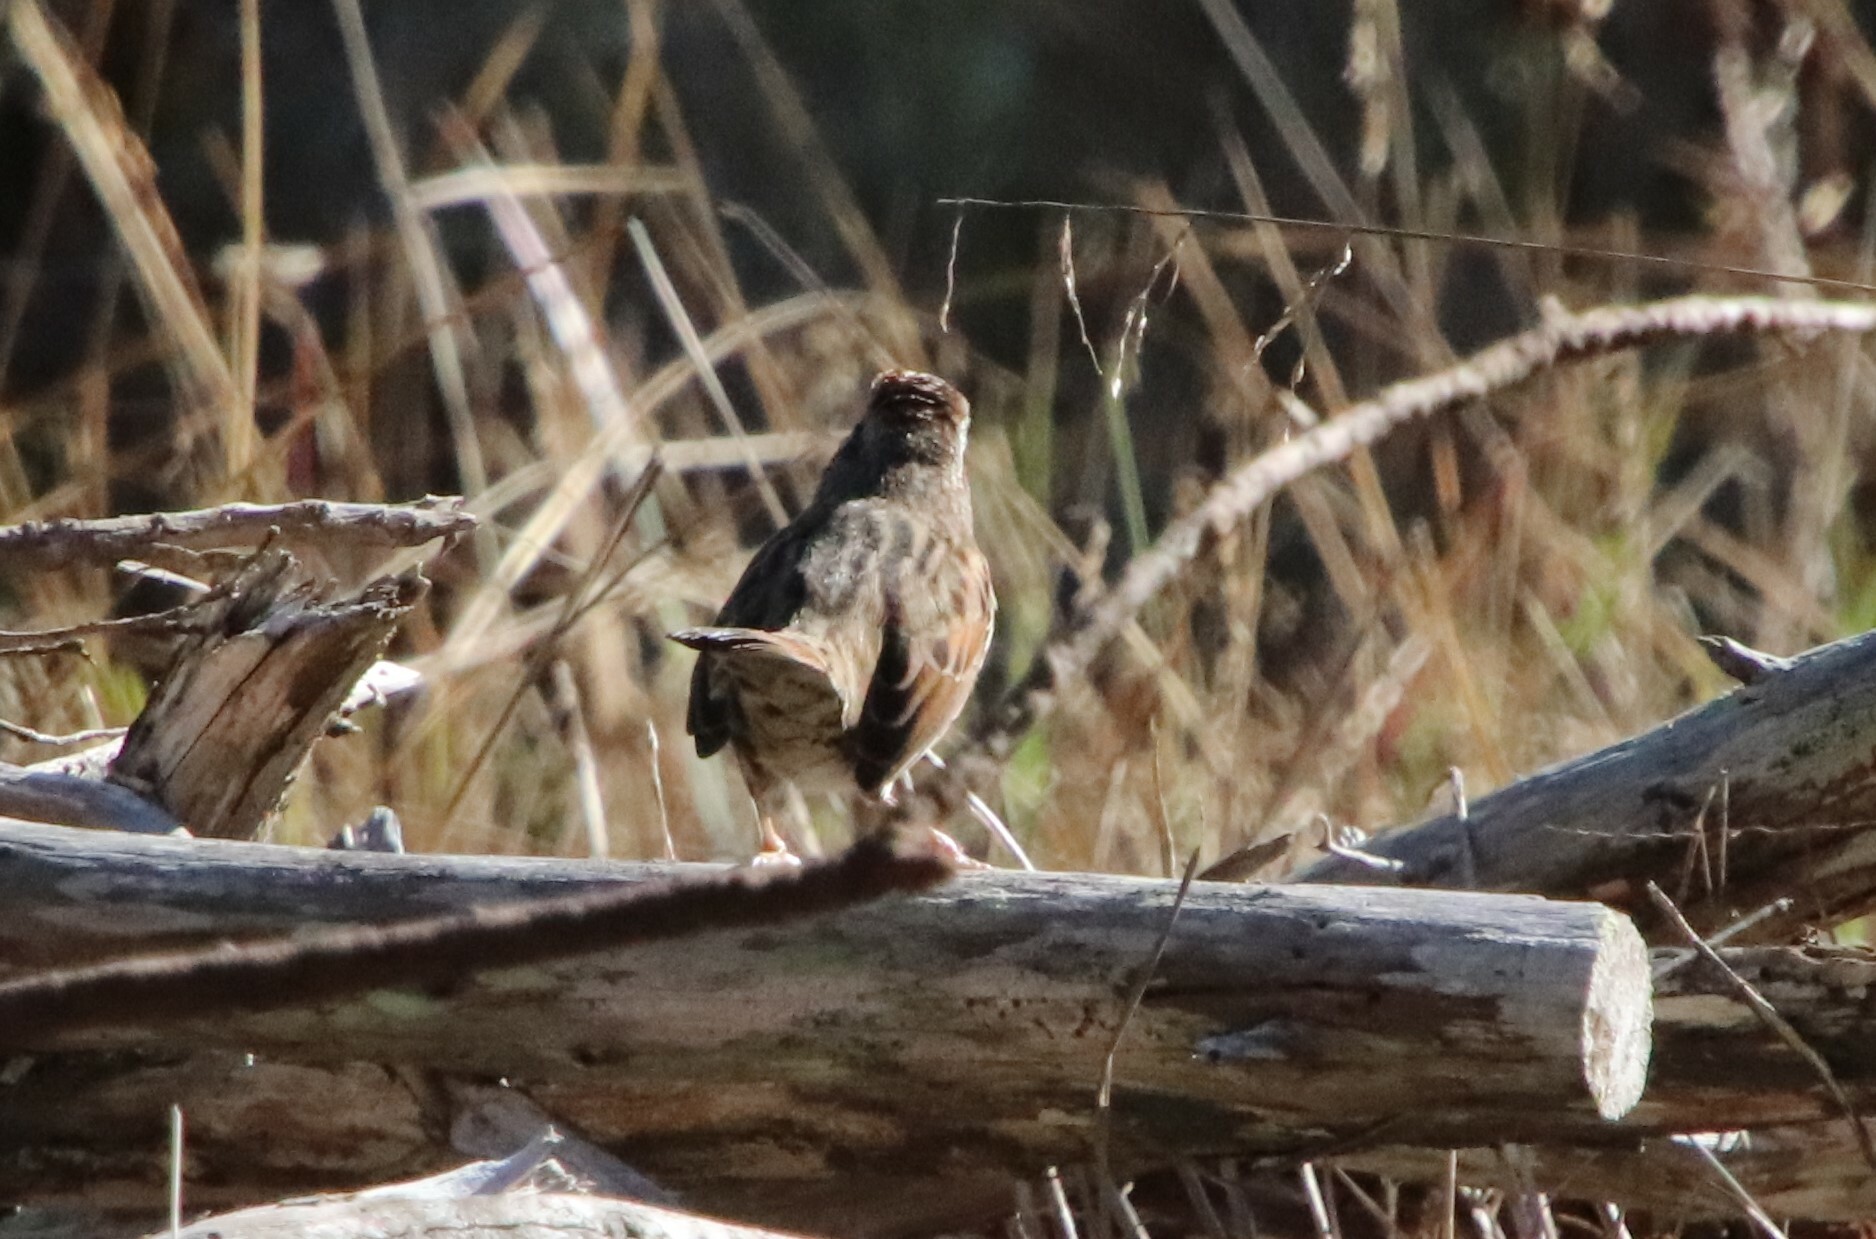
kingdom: Animalia
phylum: Chordata
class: Aves
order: Passeriformes
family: Passerellidae
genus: Melospiza
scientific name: Melospiza melodia
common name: Song sparrow
